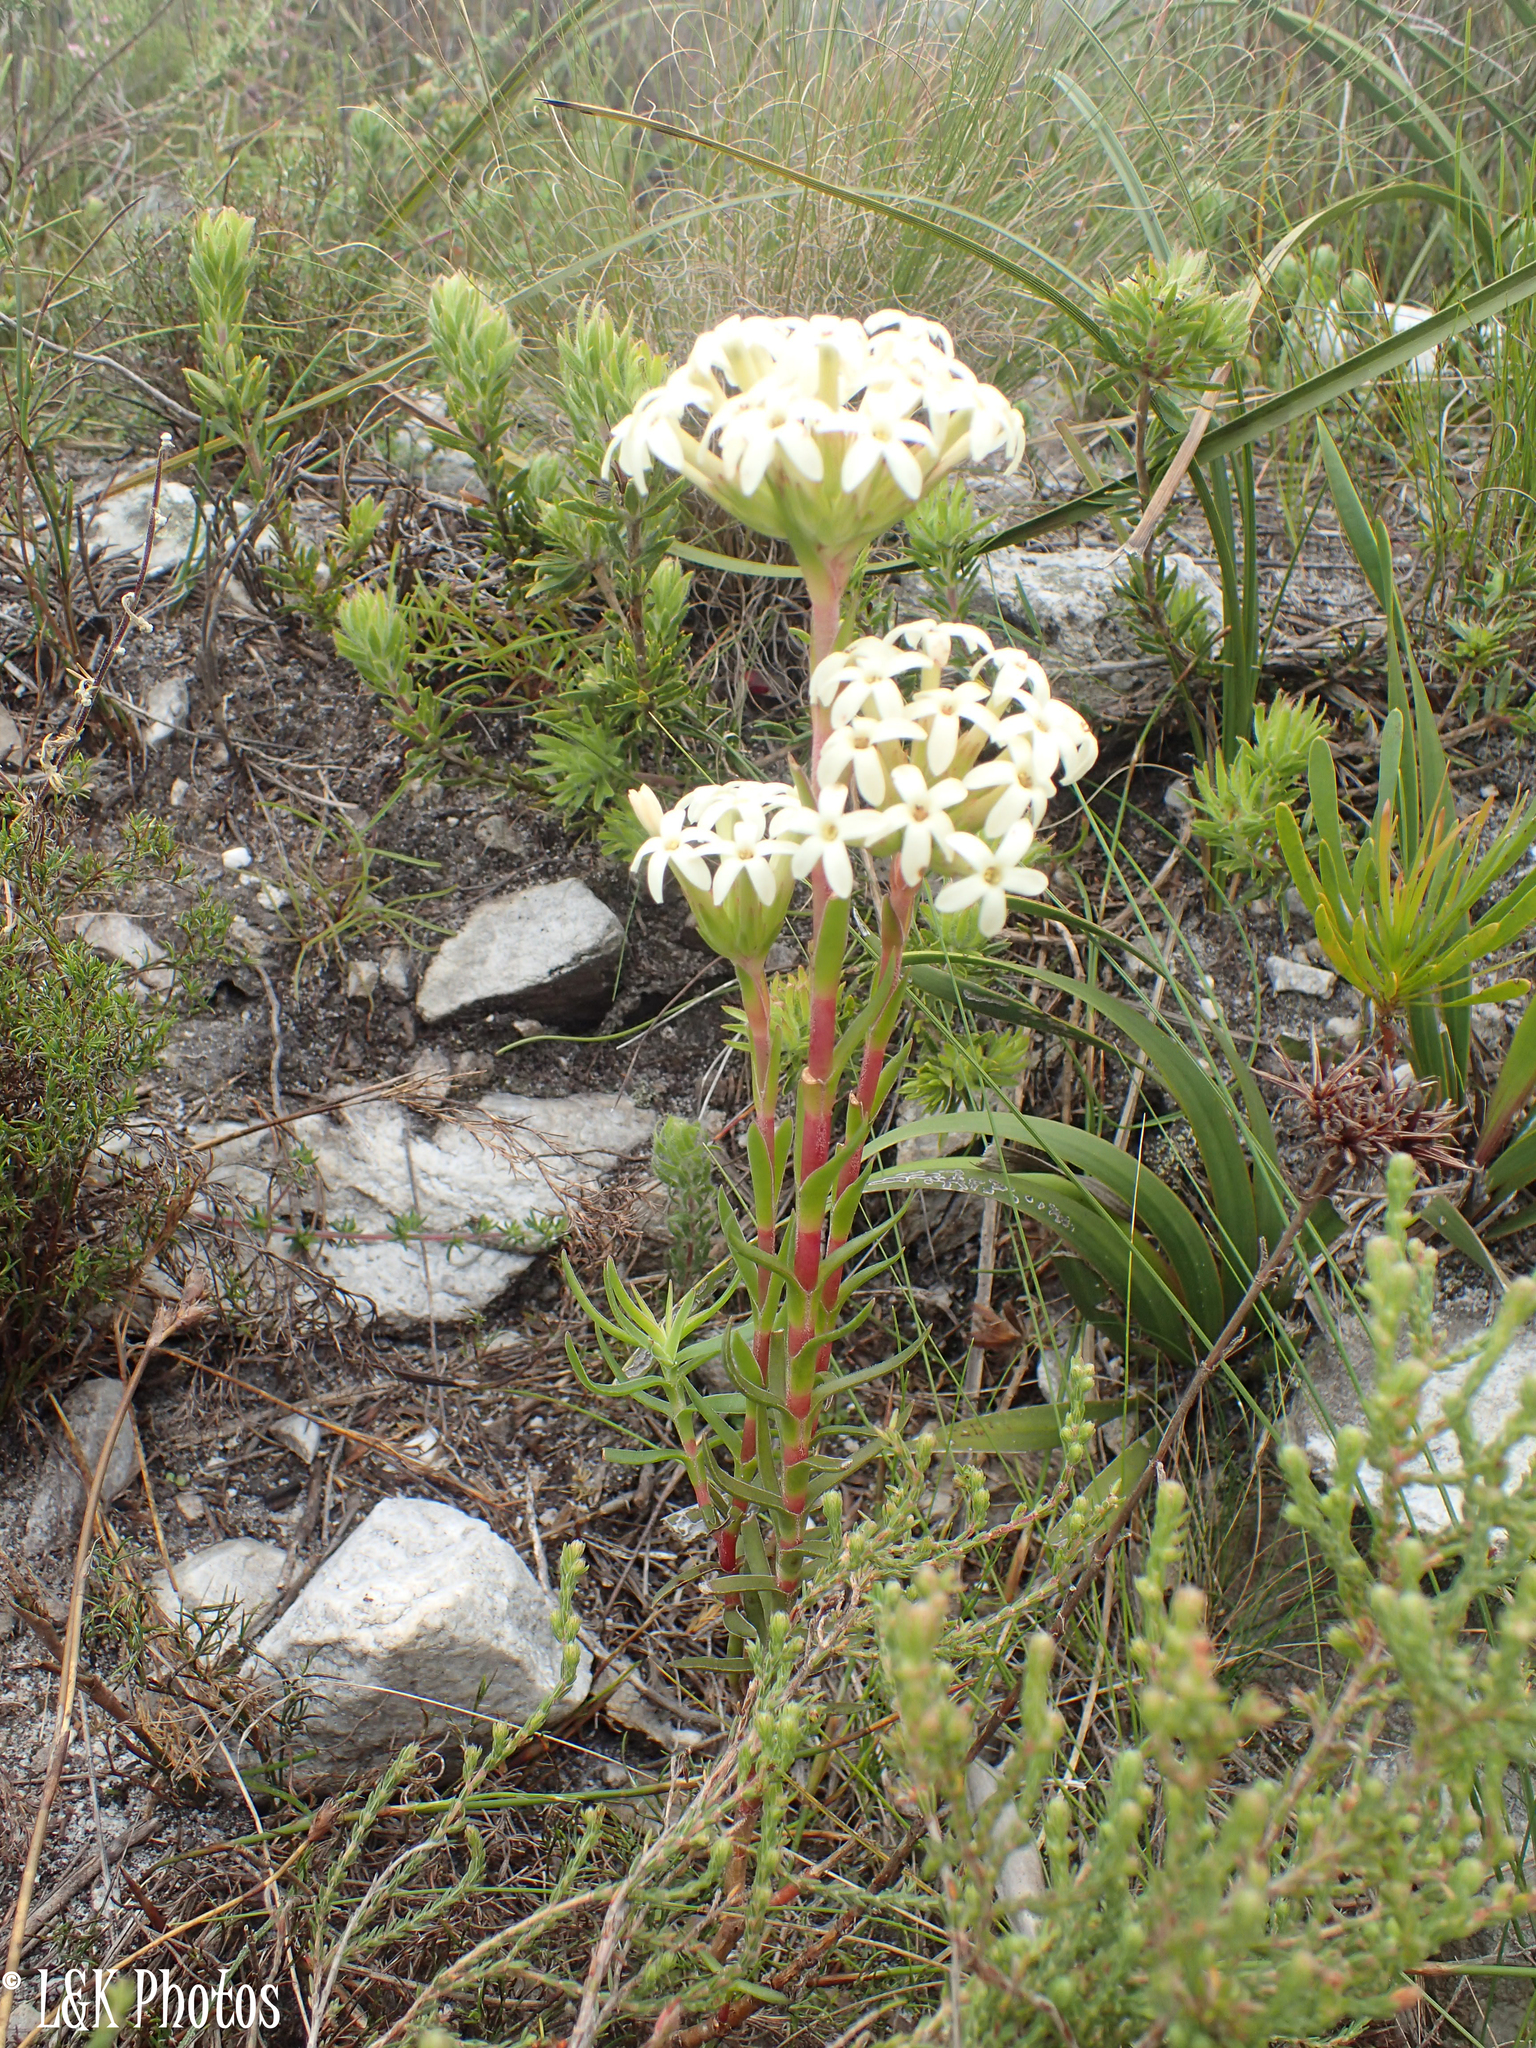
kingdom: Plantae
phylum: Tracheophyta
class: Magnoliopsida
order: Saxifragales
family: Crassulaceae
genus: Crassula
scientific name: Crassula fascicularis
